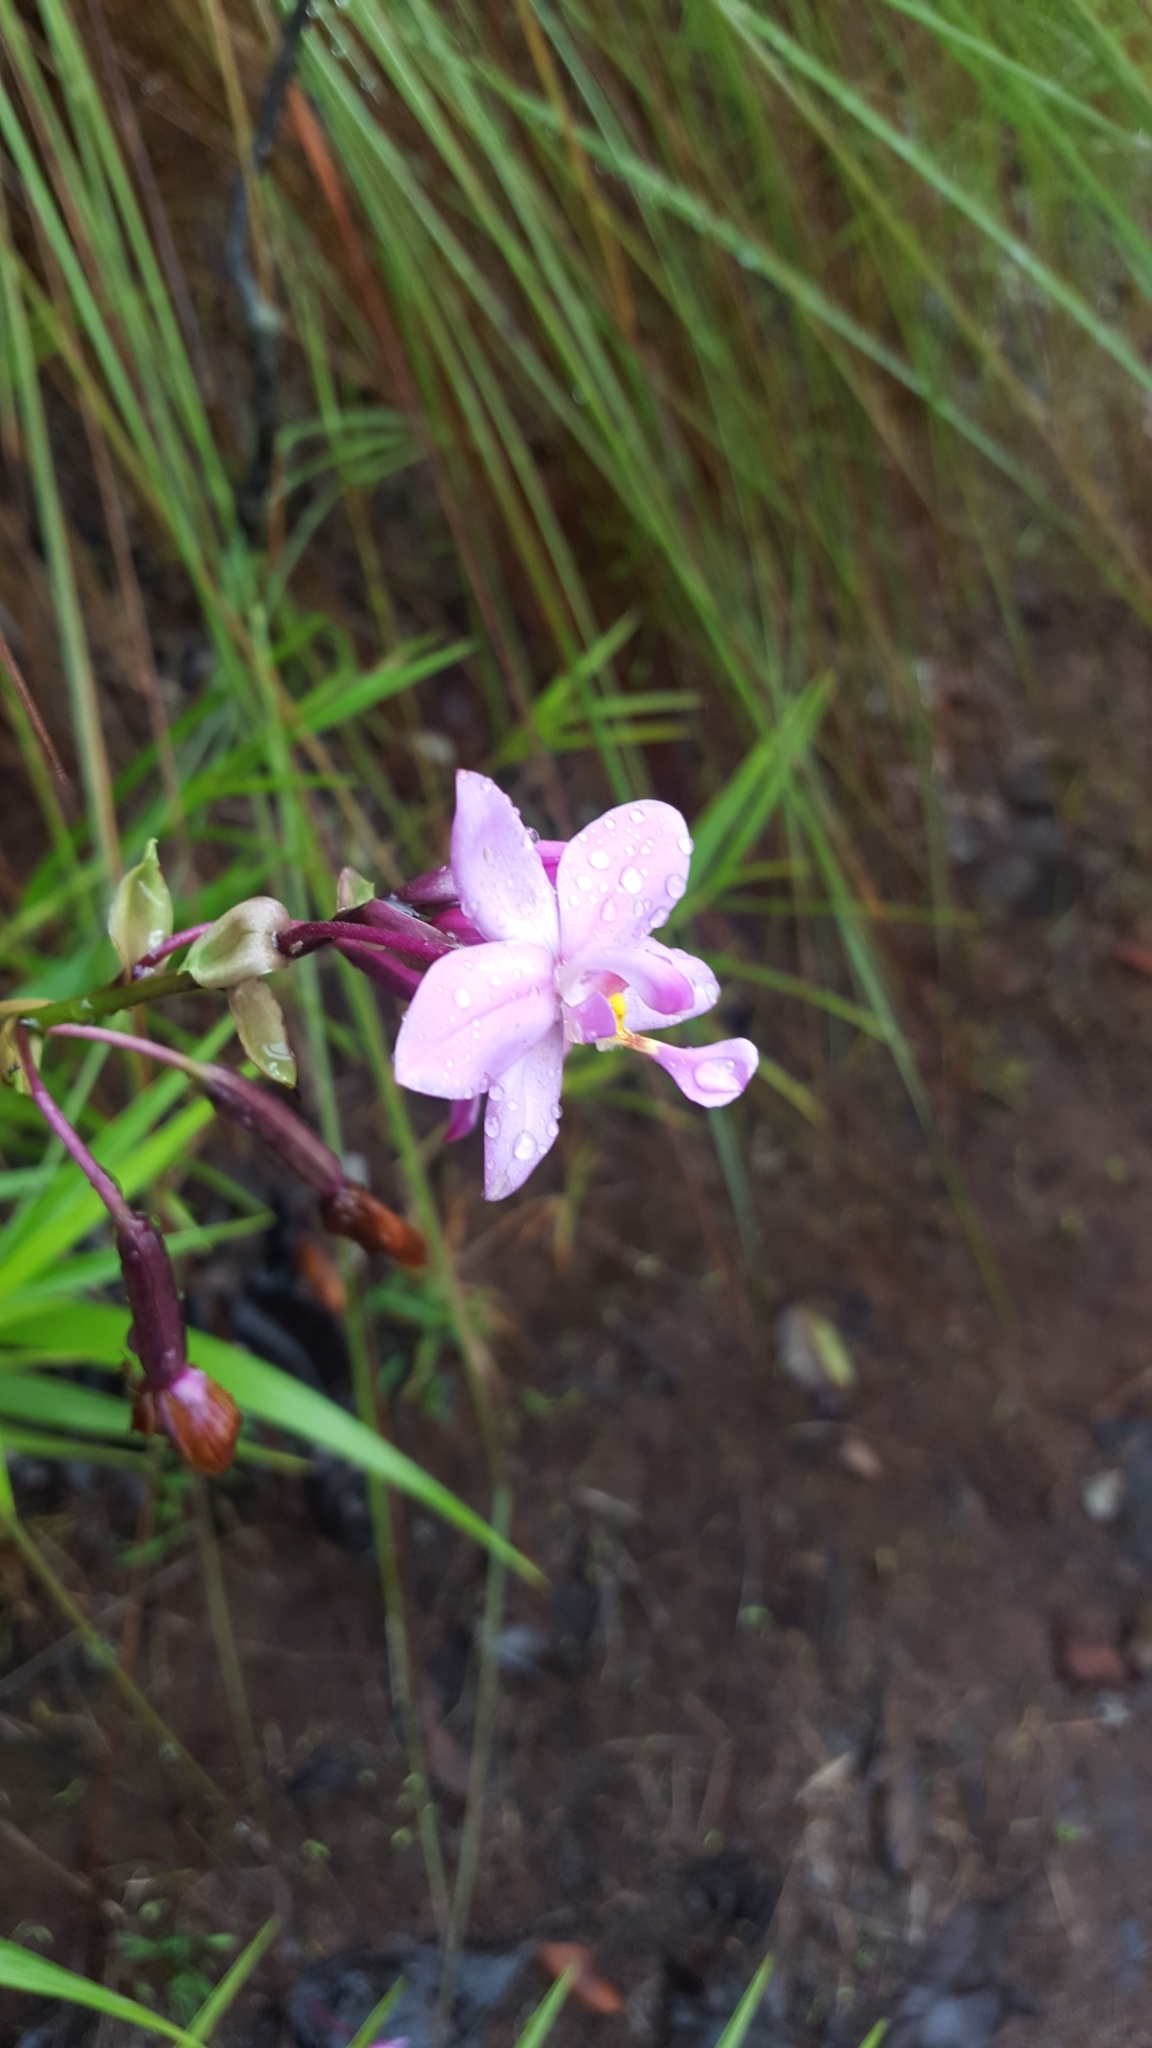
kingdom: Plantae
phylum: Tracheophyta
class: Liliopsida
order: Asparagales
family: Orchidaceae
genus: Spathoglottis
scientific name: Spathoglottis plicata
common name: Philippine ground orchid
